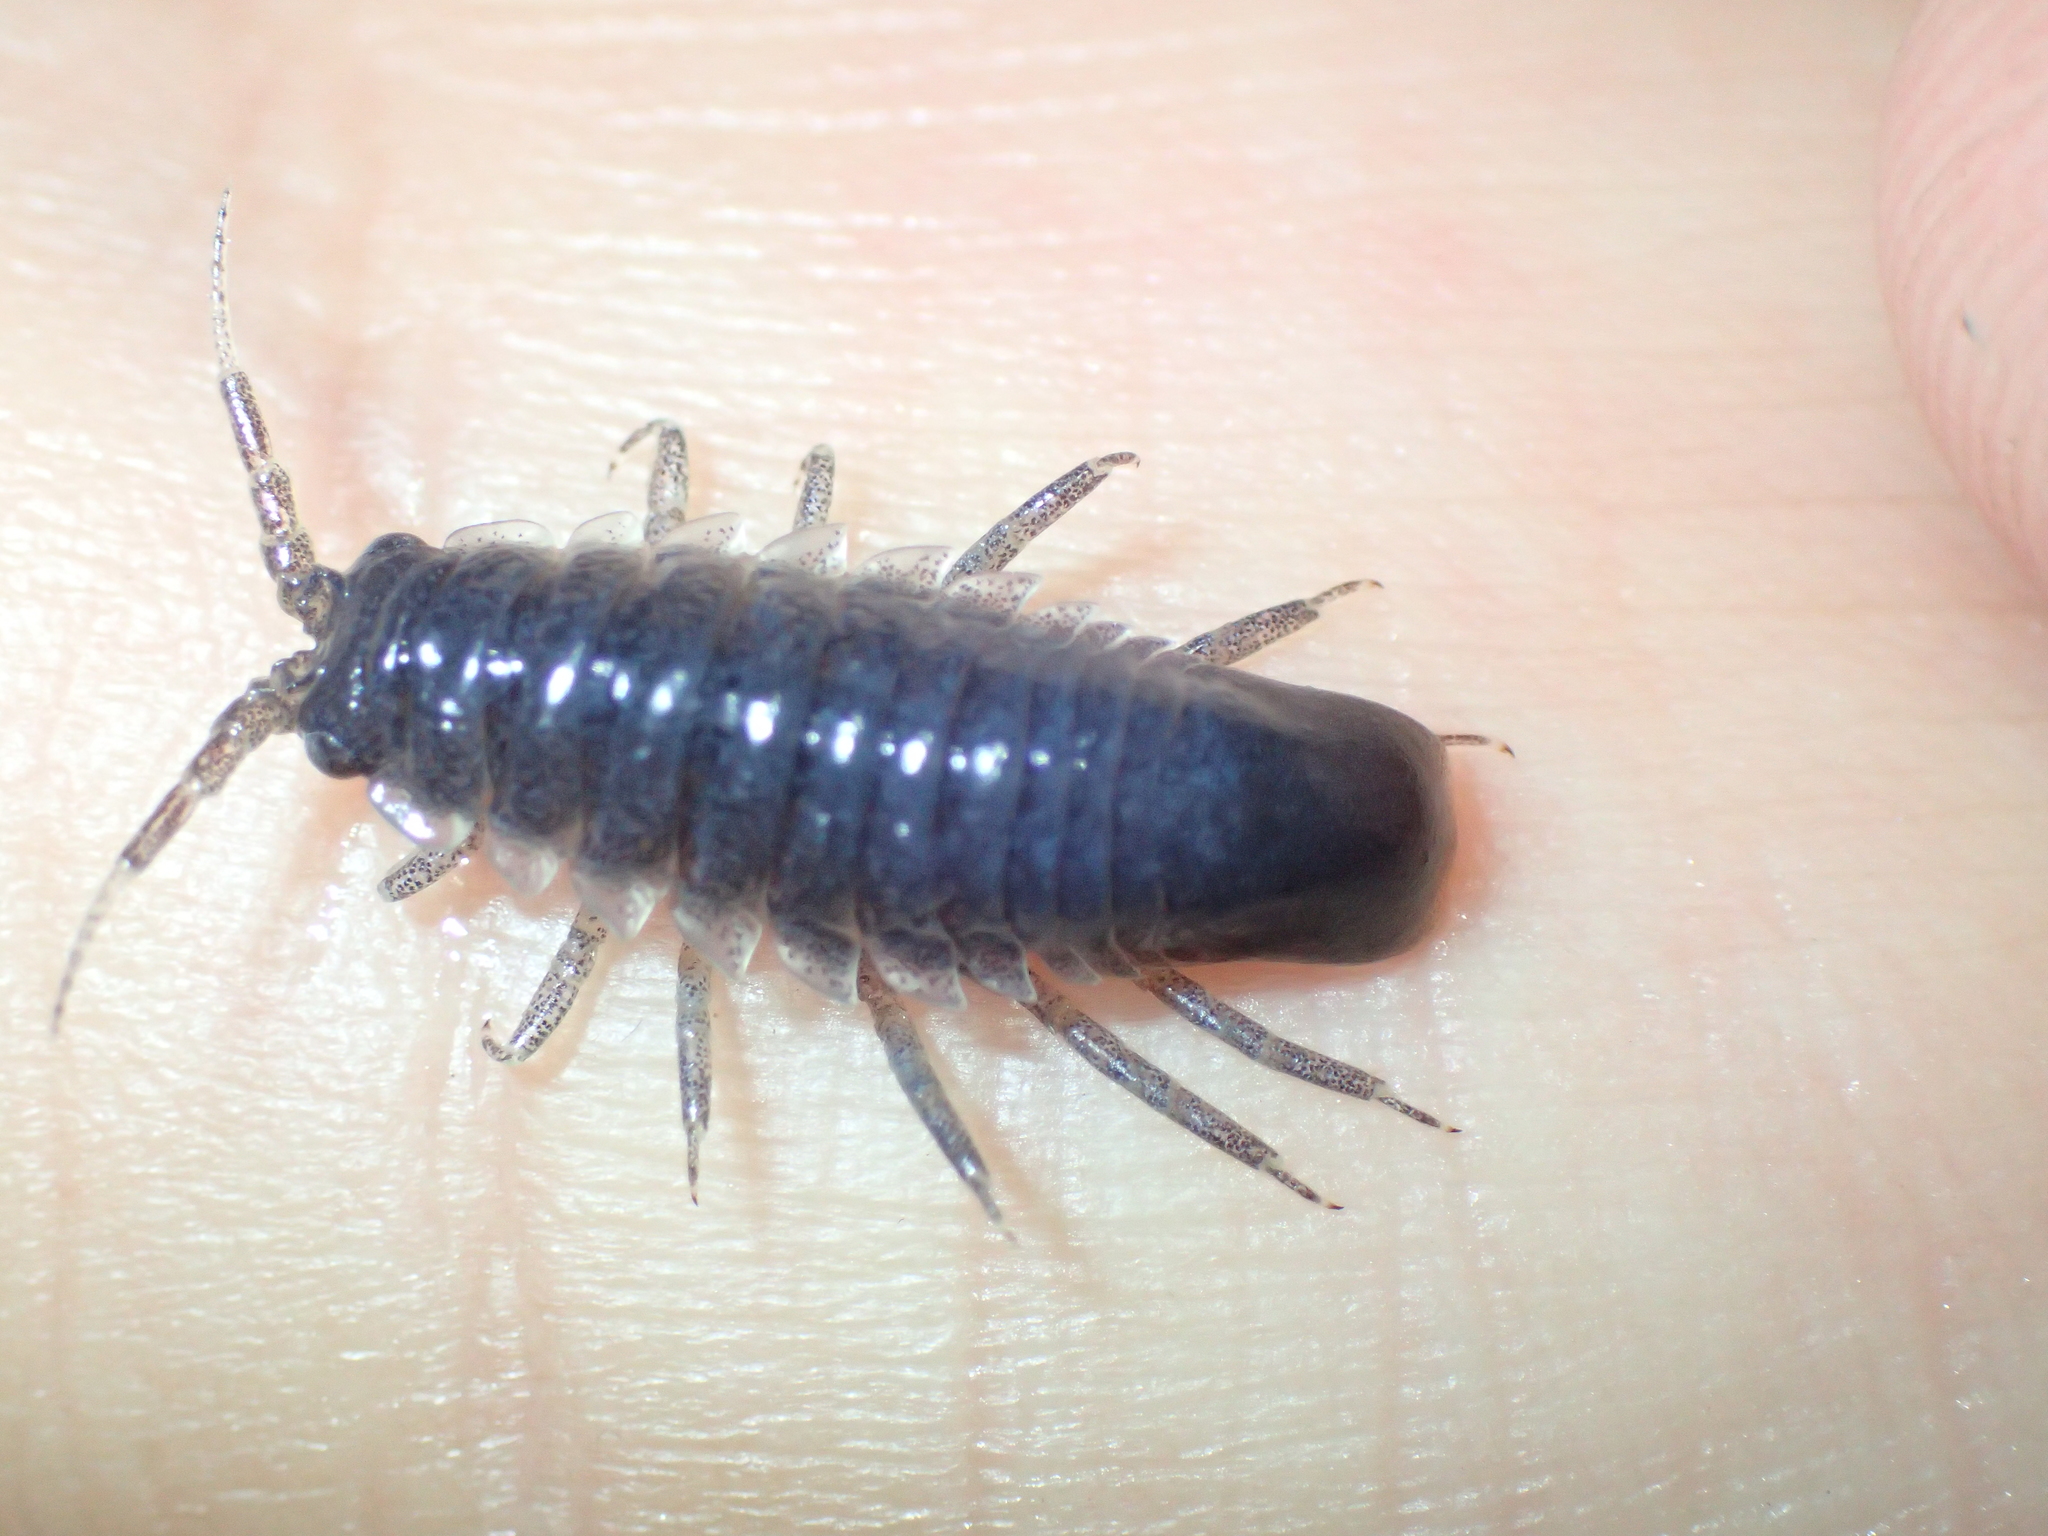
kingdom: Animalia
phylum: Arthropoda
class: Malacostraca
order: Isopoda
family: Idoteidae
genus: Idotea
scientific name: Idotea metallica
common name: Metallic marine isopod
